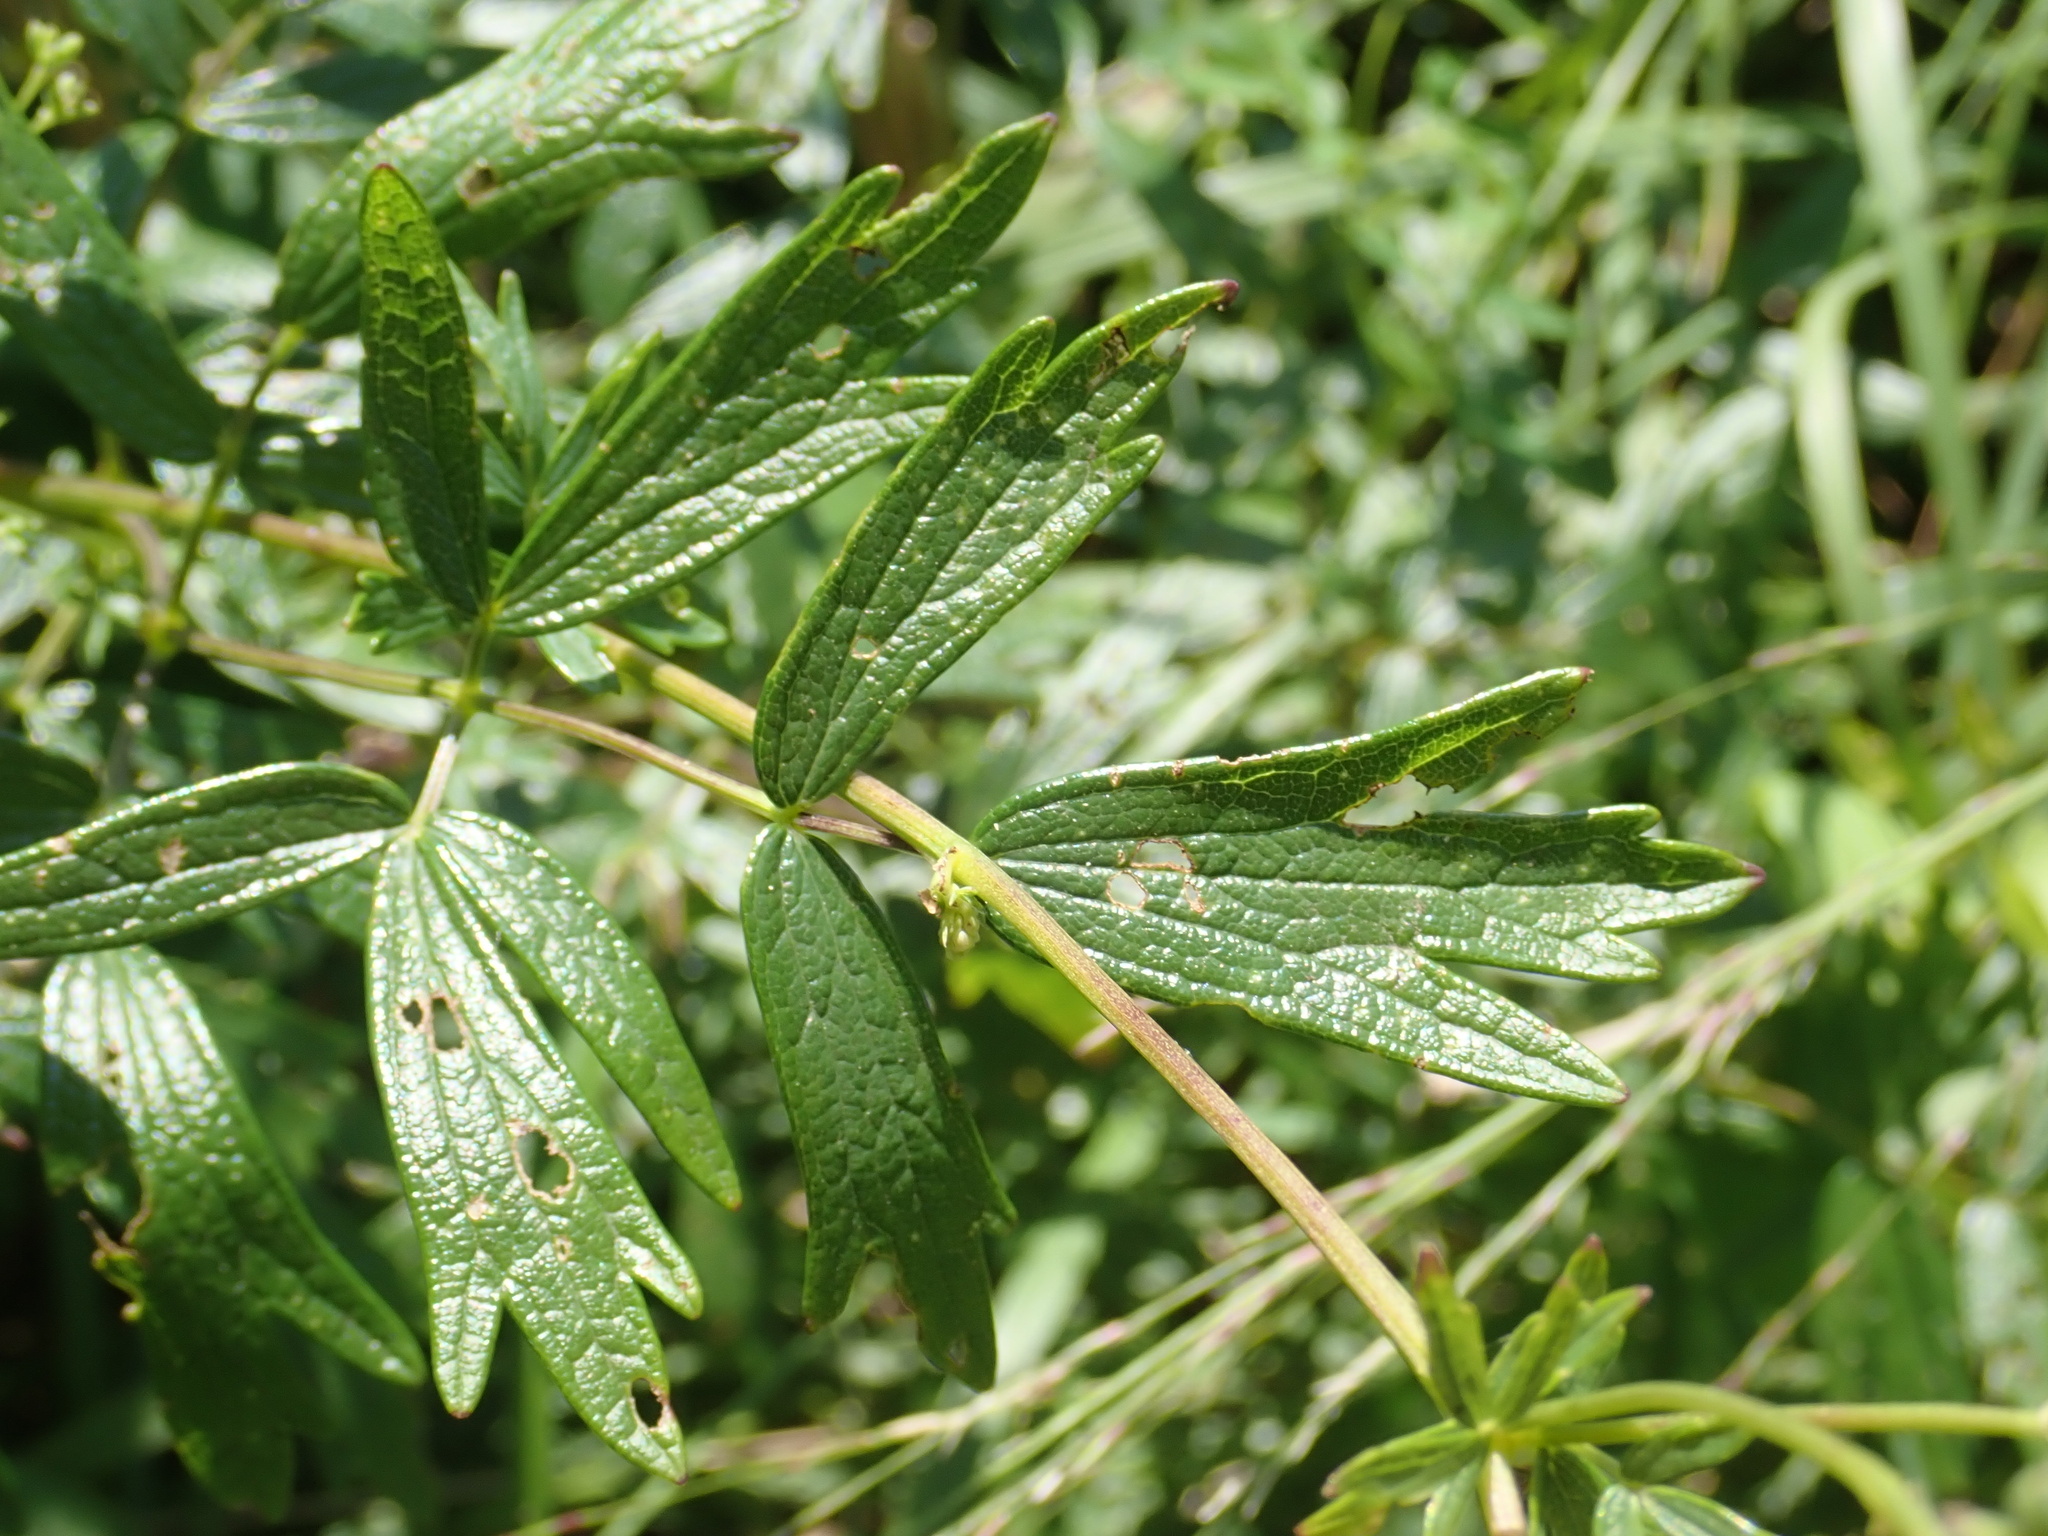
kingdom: Plantae
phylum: Tracheophyta
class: Magnoliopsida
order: Ranunculales
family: Ranunculaceae
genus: Thalictrum
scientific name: Thalictrum flavum
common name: Common meadow-rue
